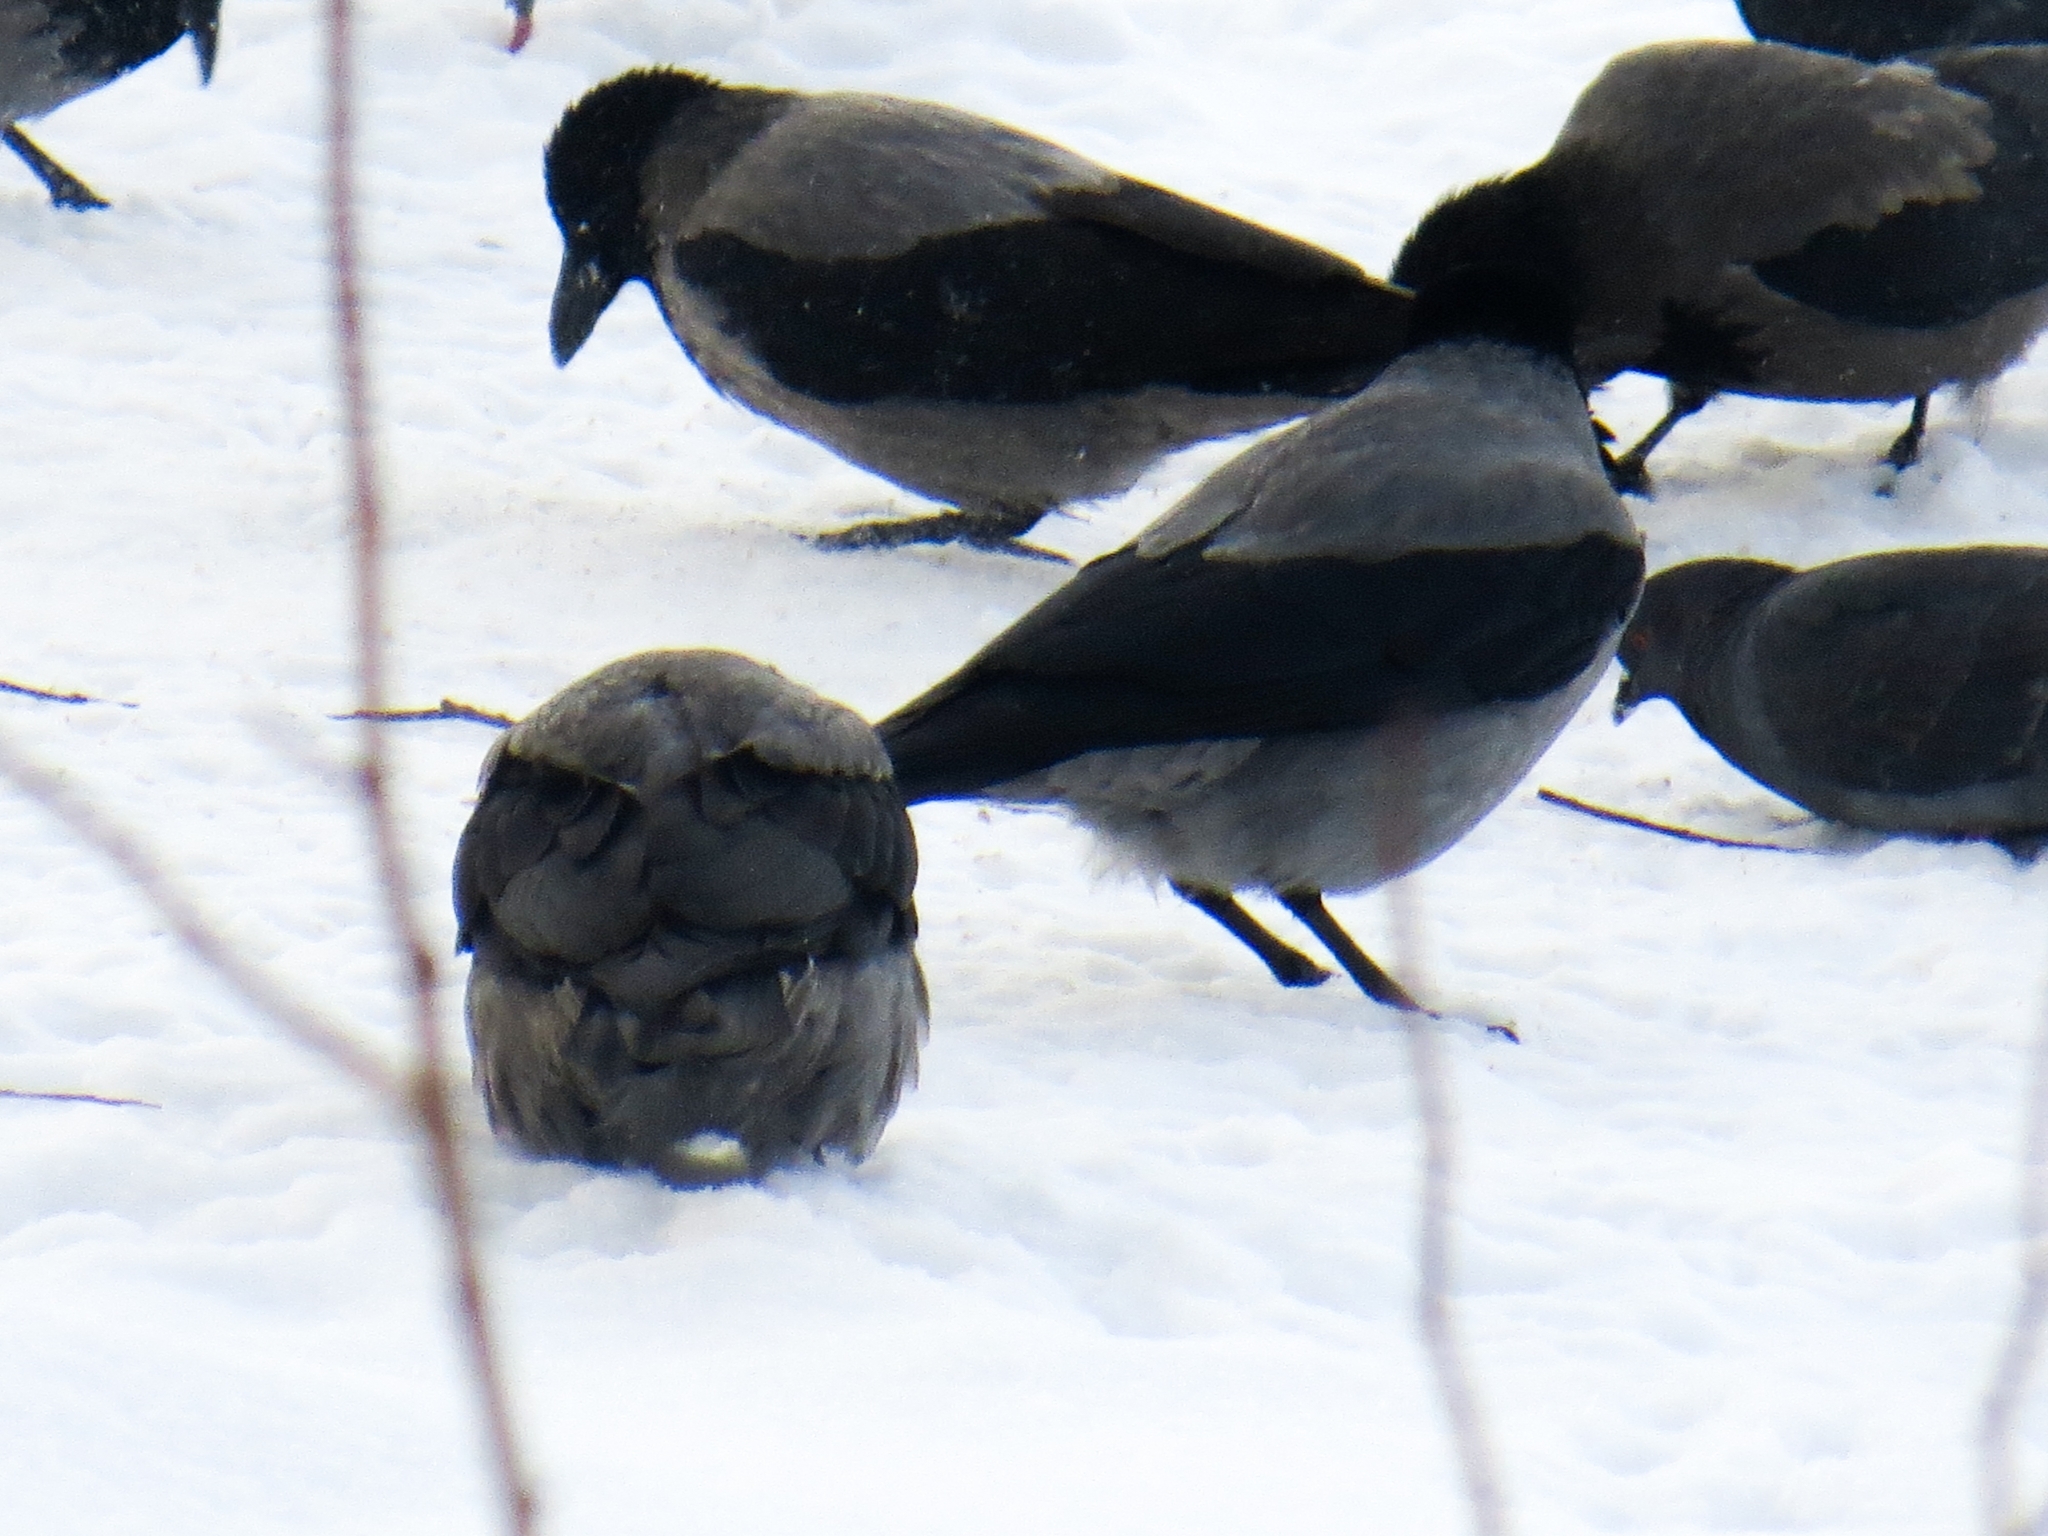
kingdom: Animalia
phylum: Chordata
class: Aves
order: Passeriformes
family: Corvidae
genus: Corvus
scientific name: Corvus cornix
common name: Hooded crow
